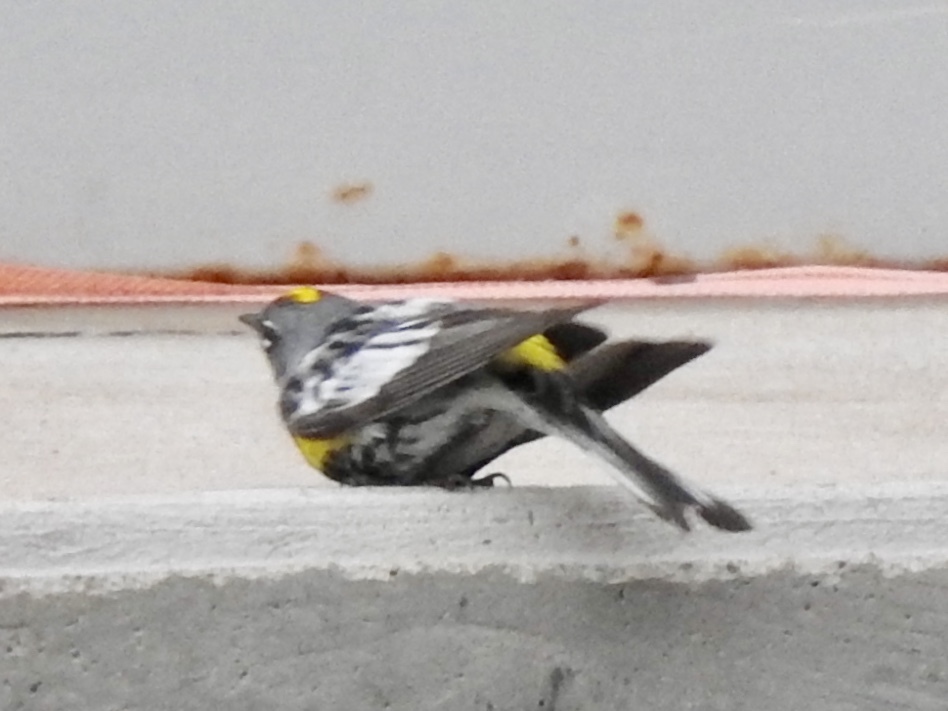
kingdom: Animalia
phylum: Chordata
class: Aves
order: Passeriformes
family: Parulidae
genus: Setophaga
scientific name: Setophaga coronata
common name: Myrtle warbler
